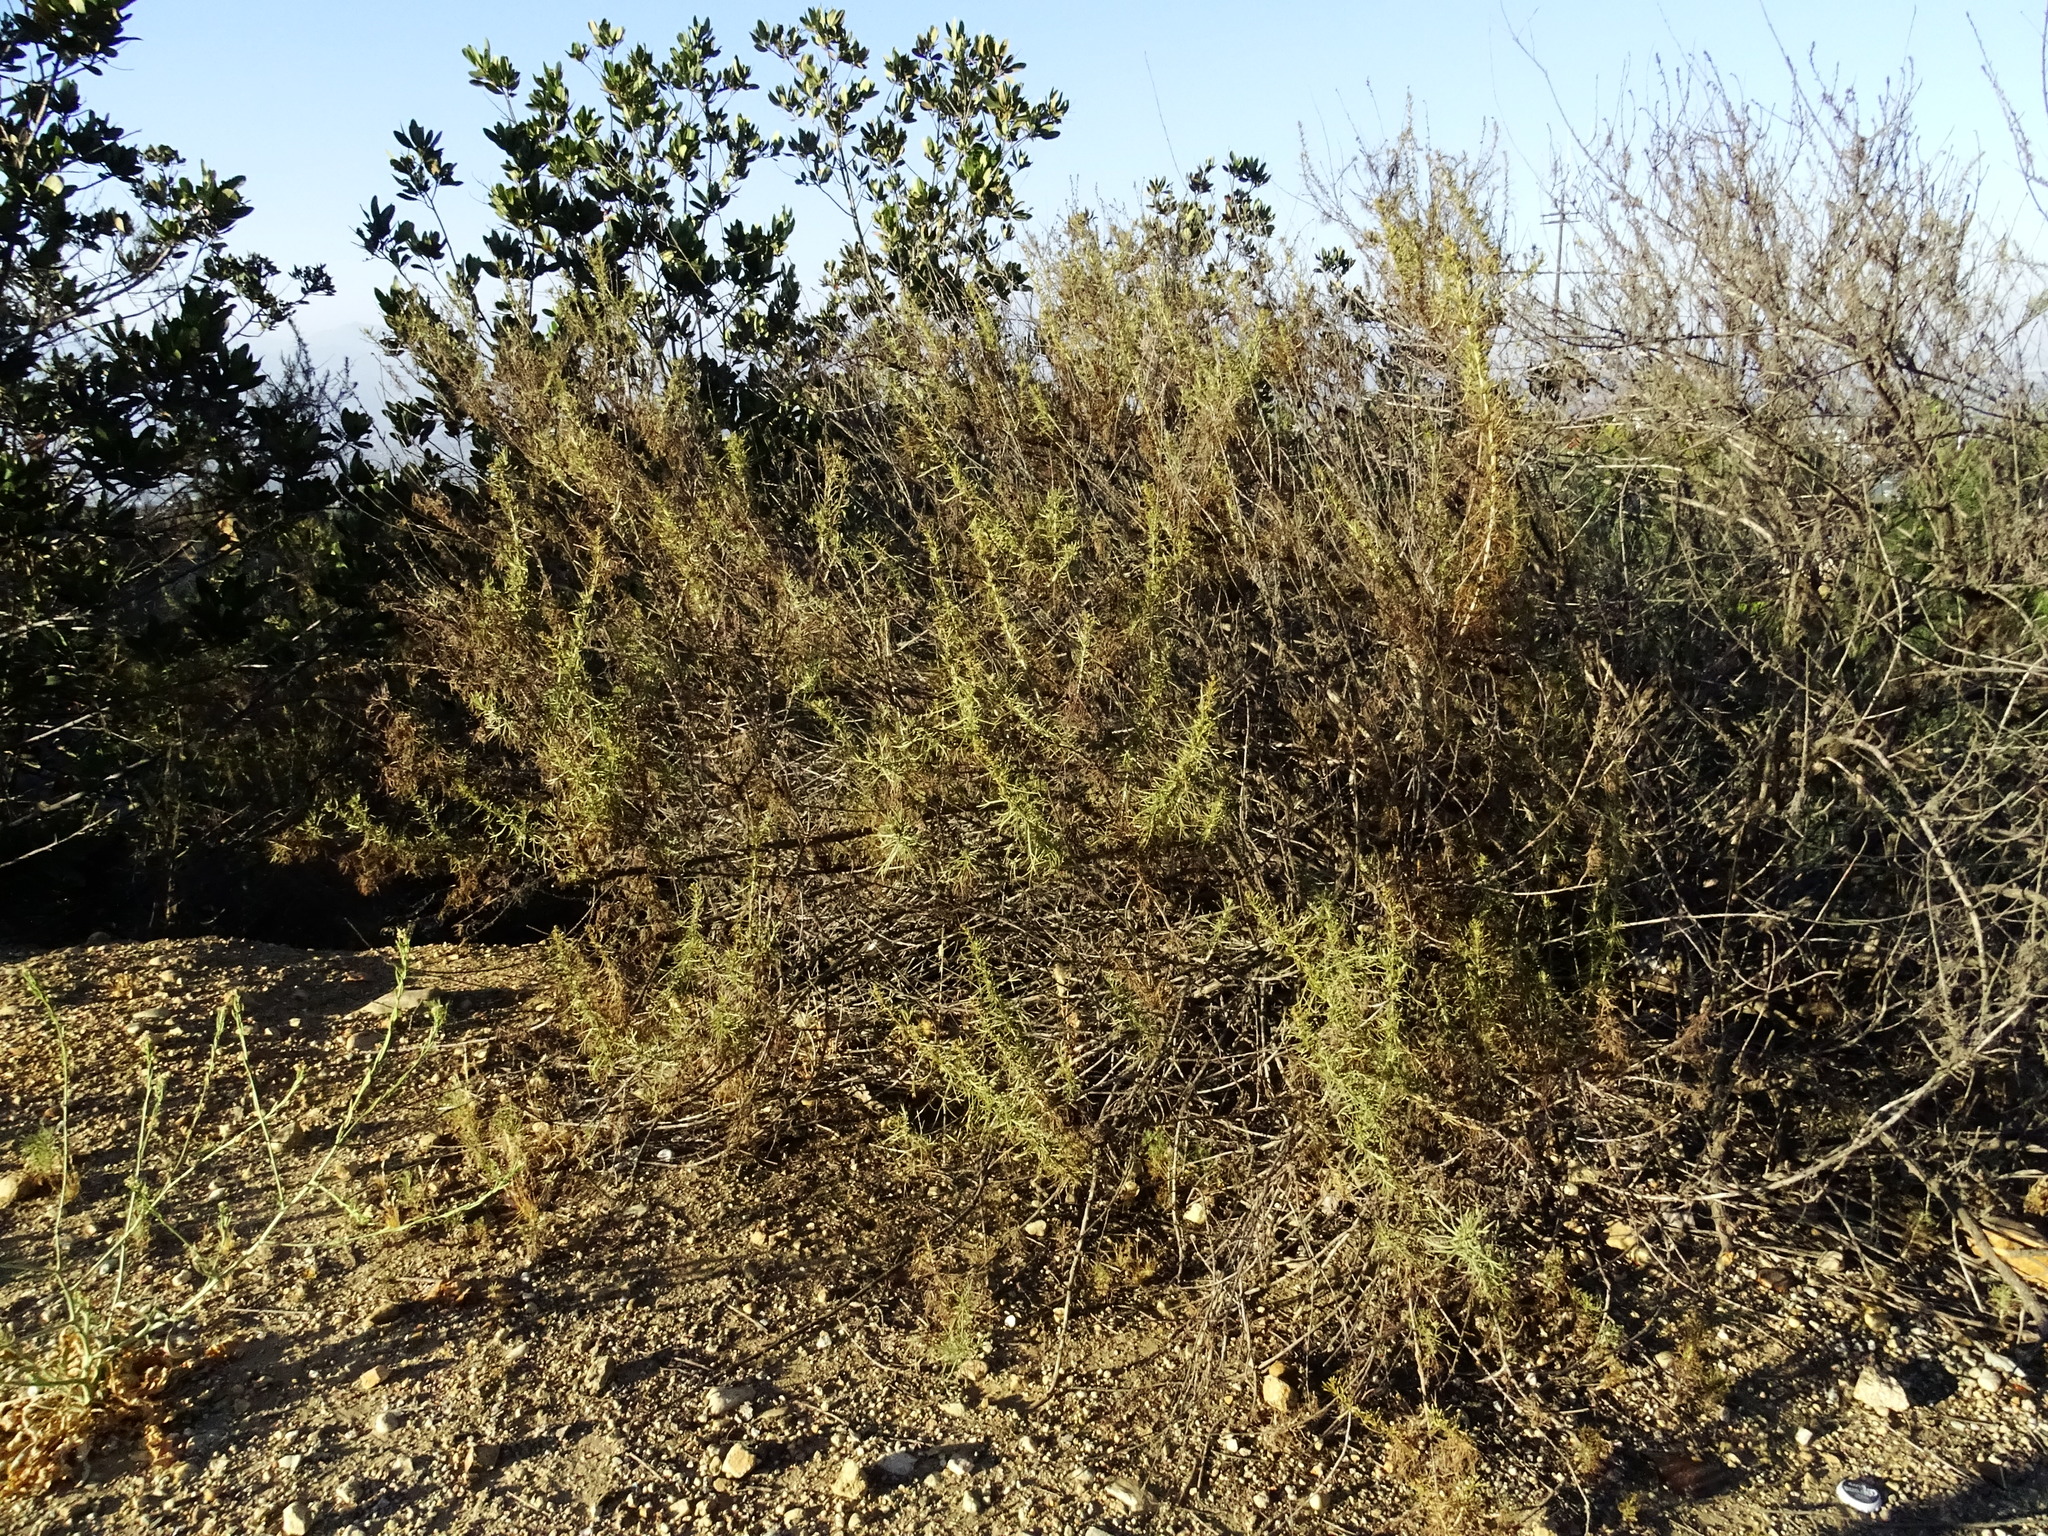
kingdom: Plantae
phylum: Tracheophyta
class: Magnoliopsida
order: Asterales
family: Asteraceae
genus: Artemisia
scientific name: Artemisia californica
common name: California sagebrush
